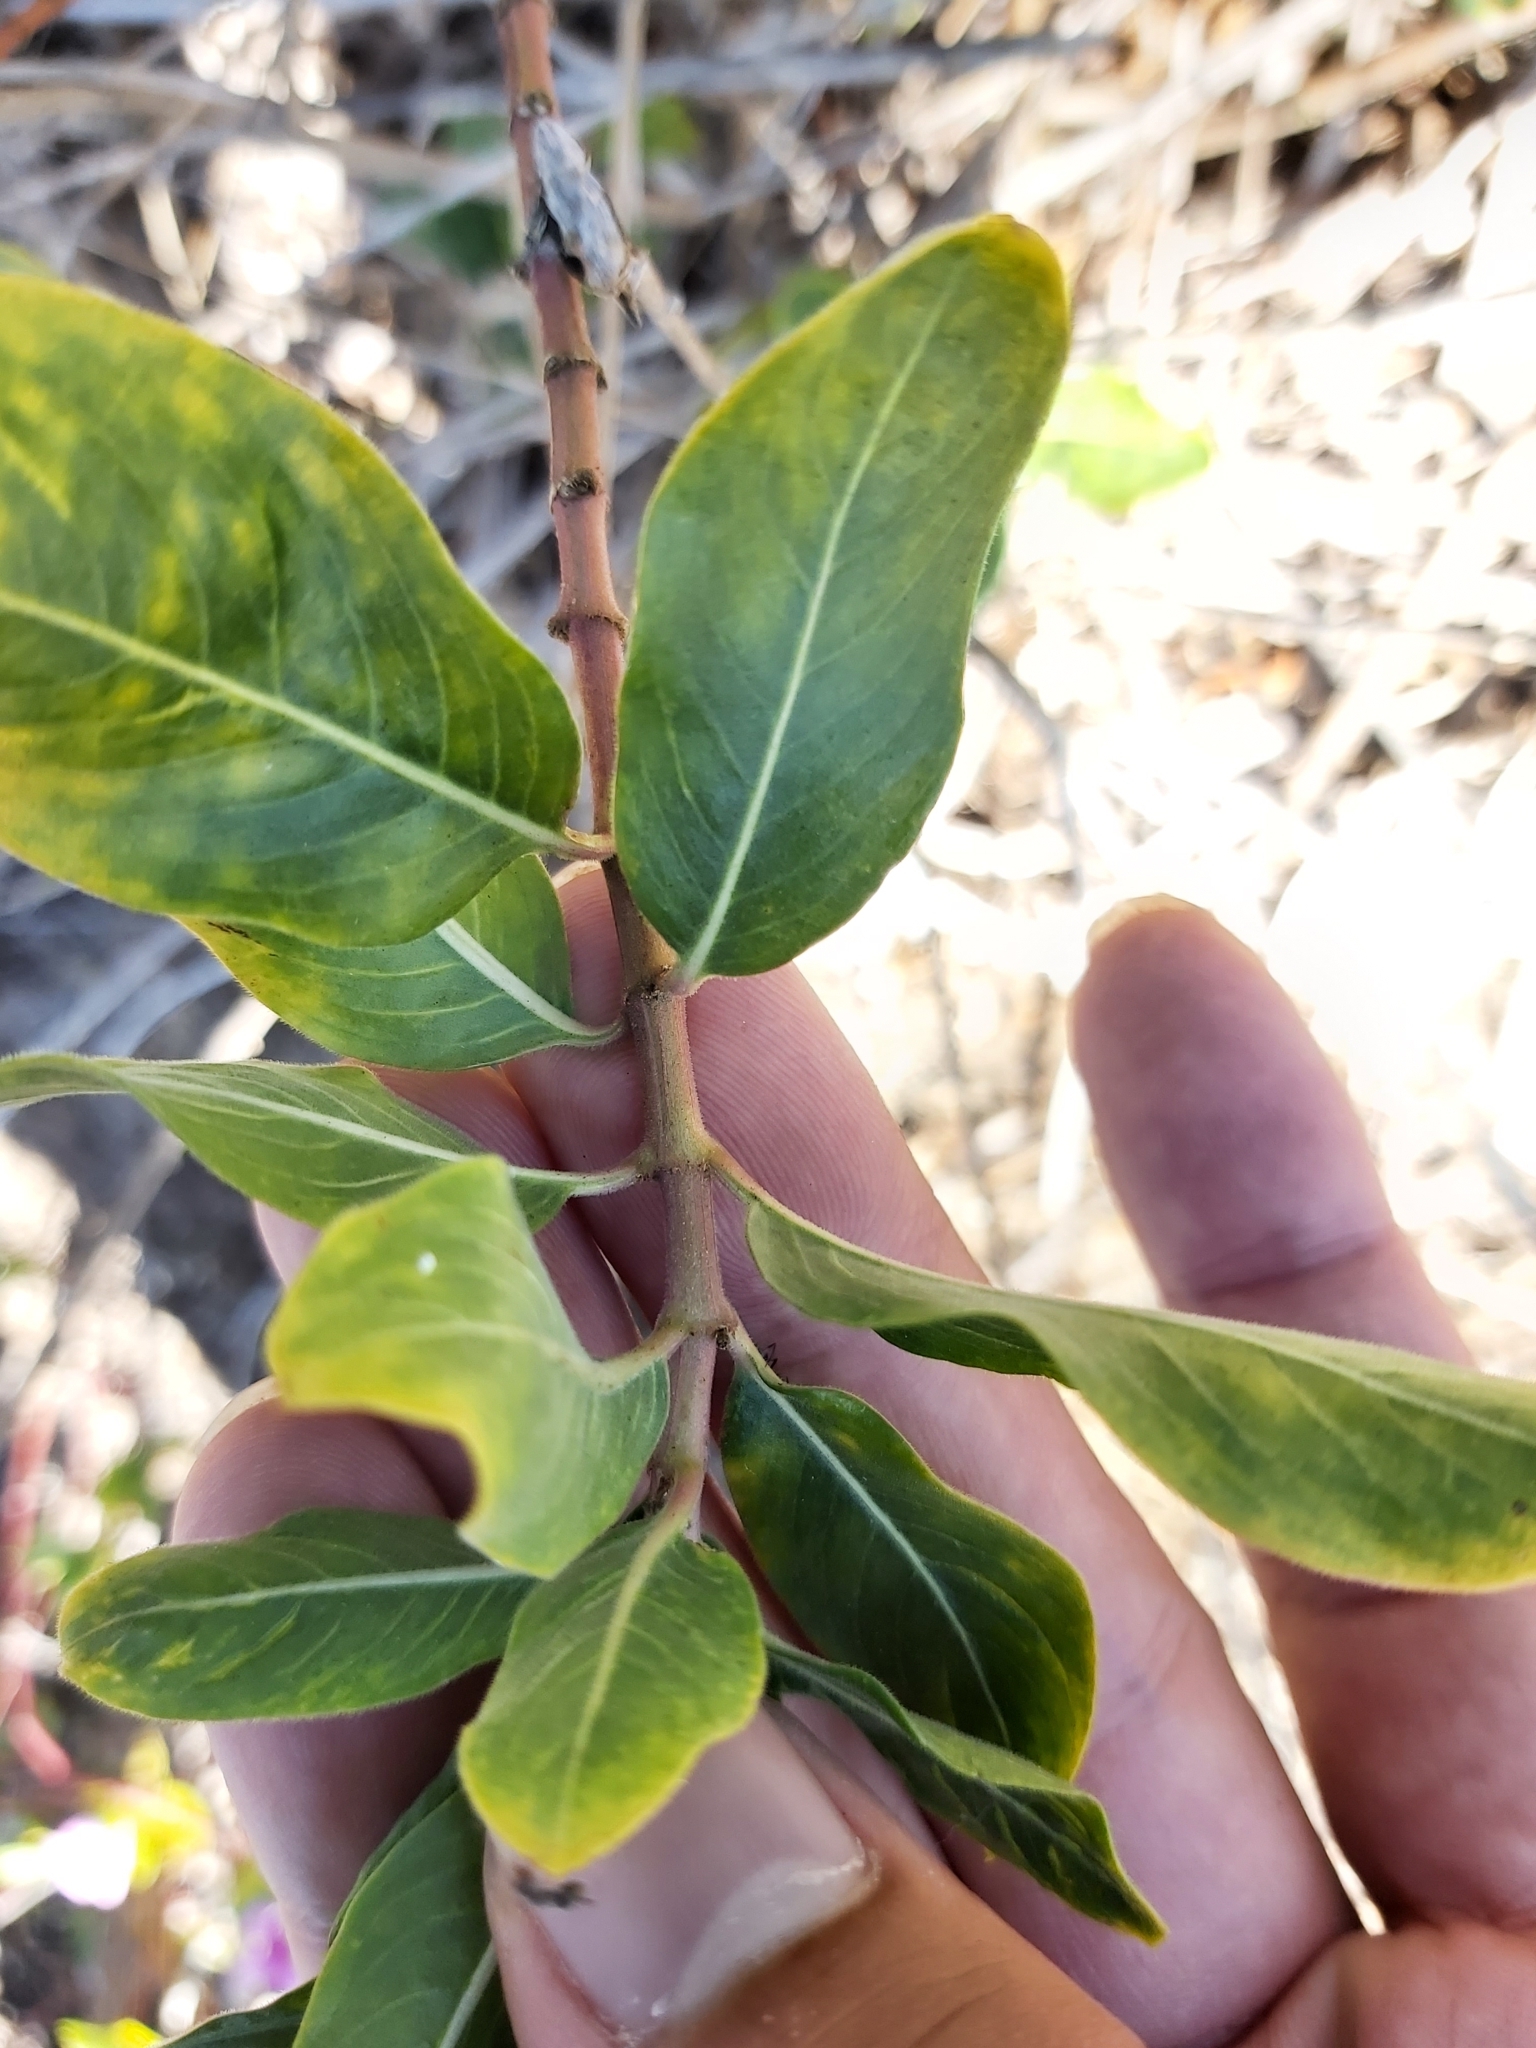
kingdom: Plantae
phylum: Tracheophyta
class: Magnoliopsida
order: Gentianales
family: Apocynaceae
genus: Catharanthus
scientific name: Catharanthus roseus
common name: Madagascar periwinkle
